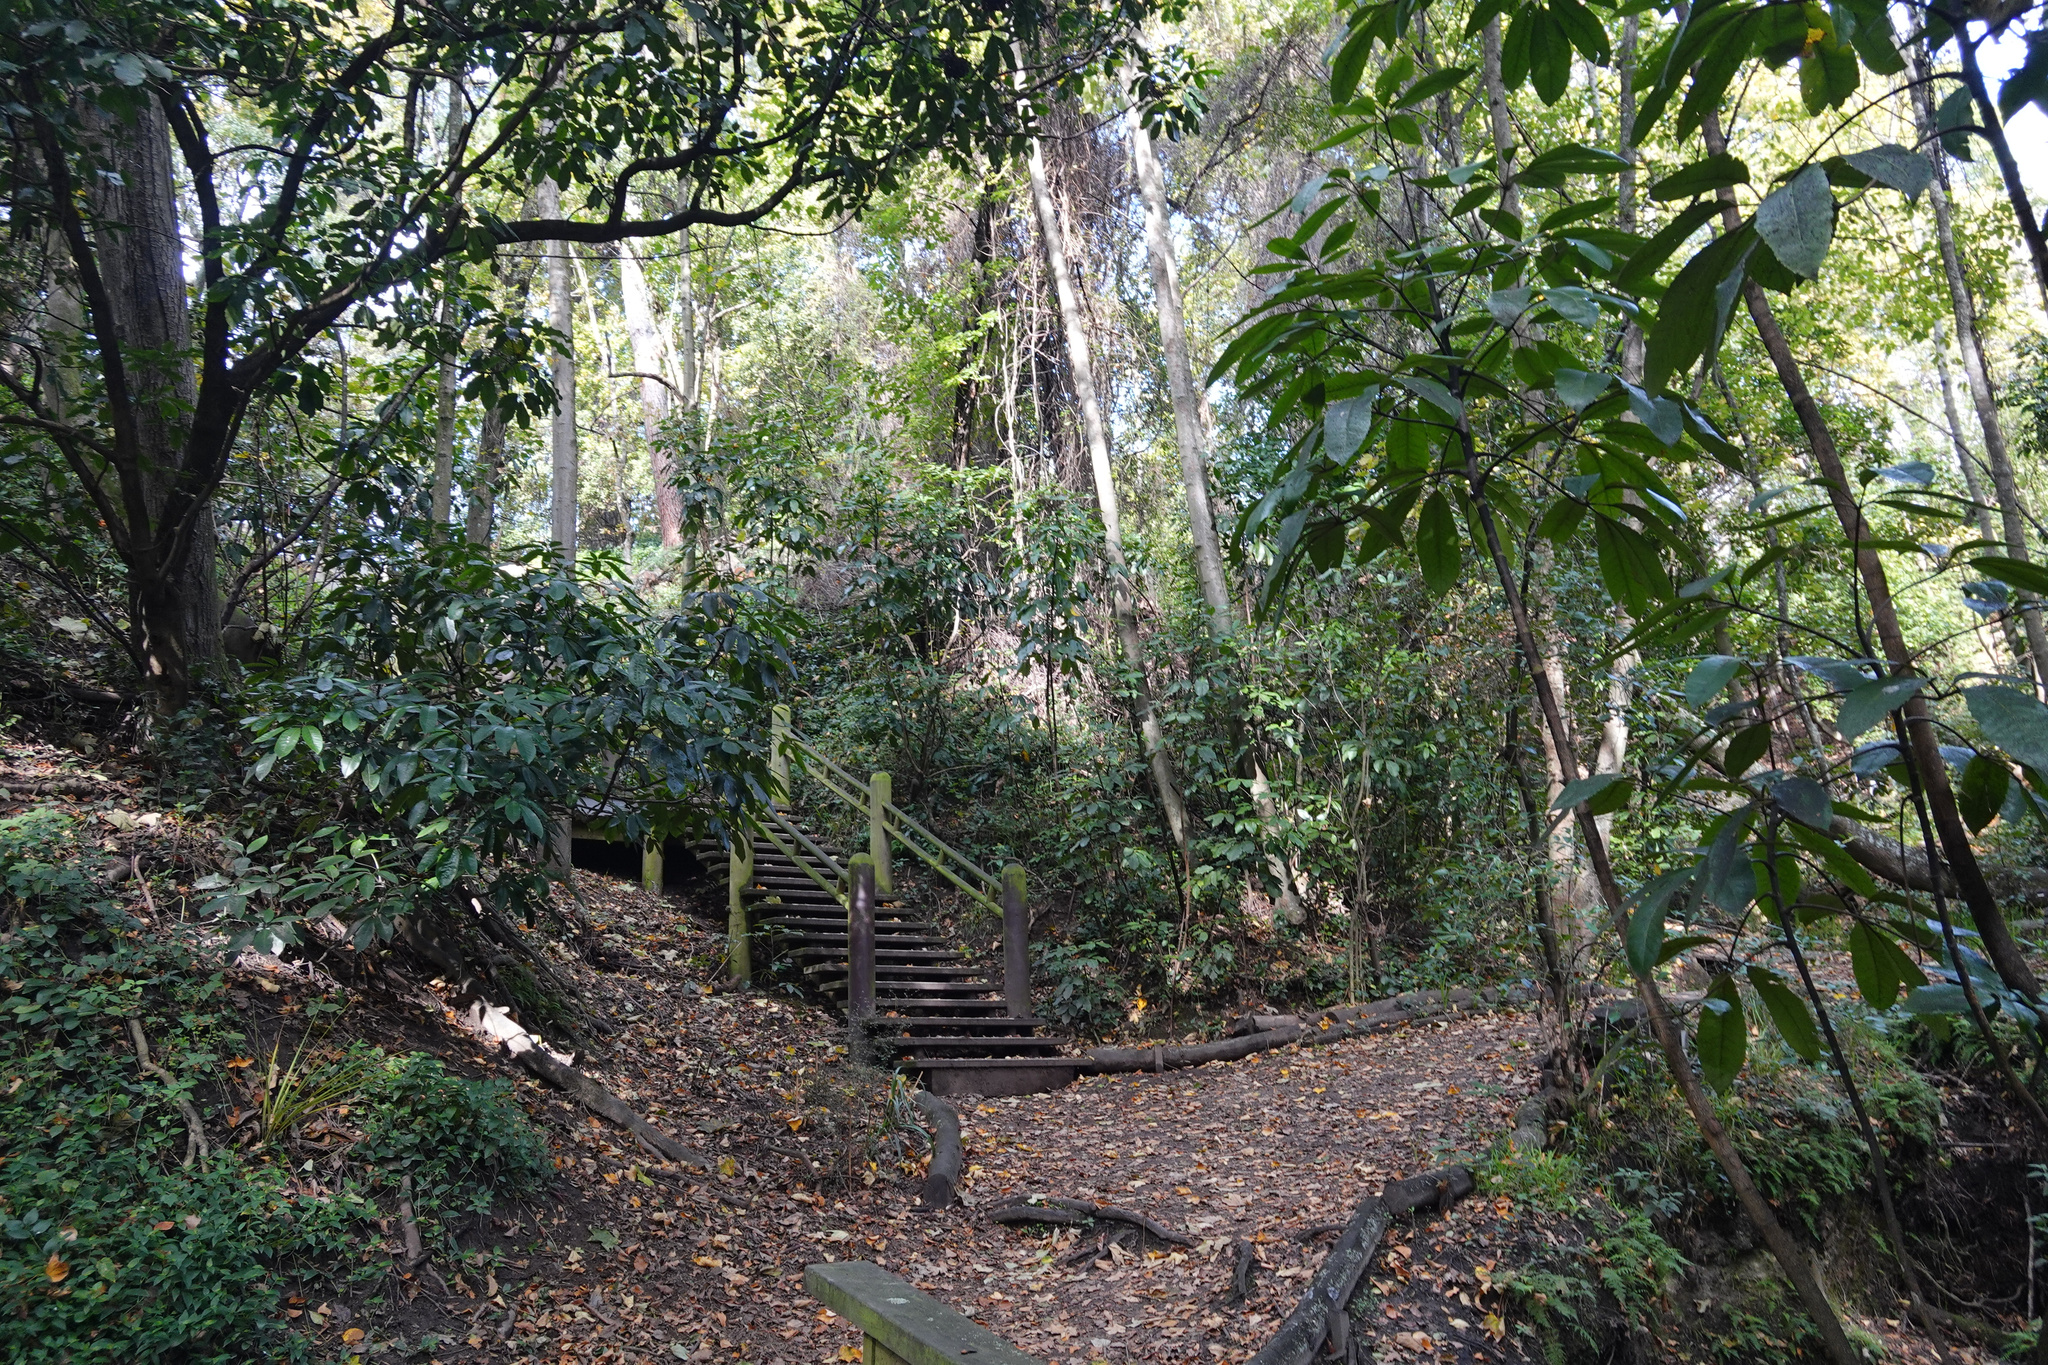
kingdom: Plantae
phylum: Tracheophyta
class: Magnoliopsida
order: Apiales
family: Araliaceae
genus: Neopanax
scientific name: Neopanax arboreus
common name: Five-fingers
